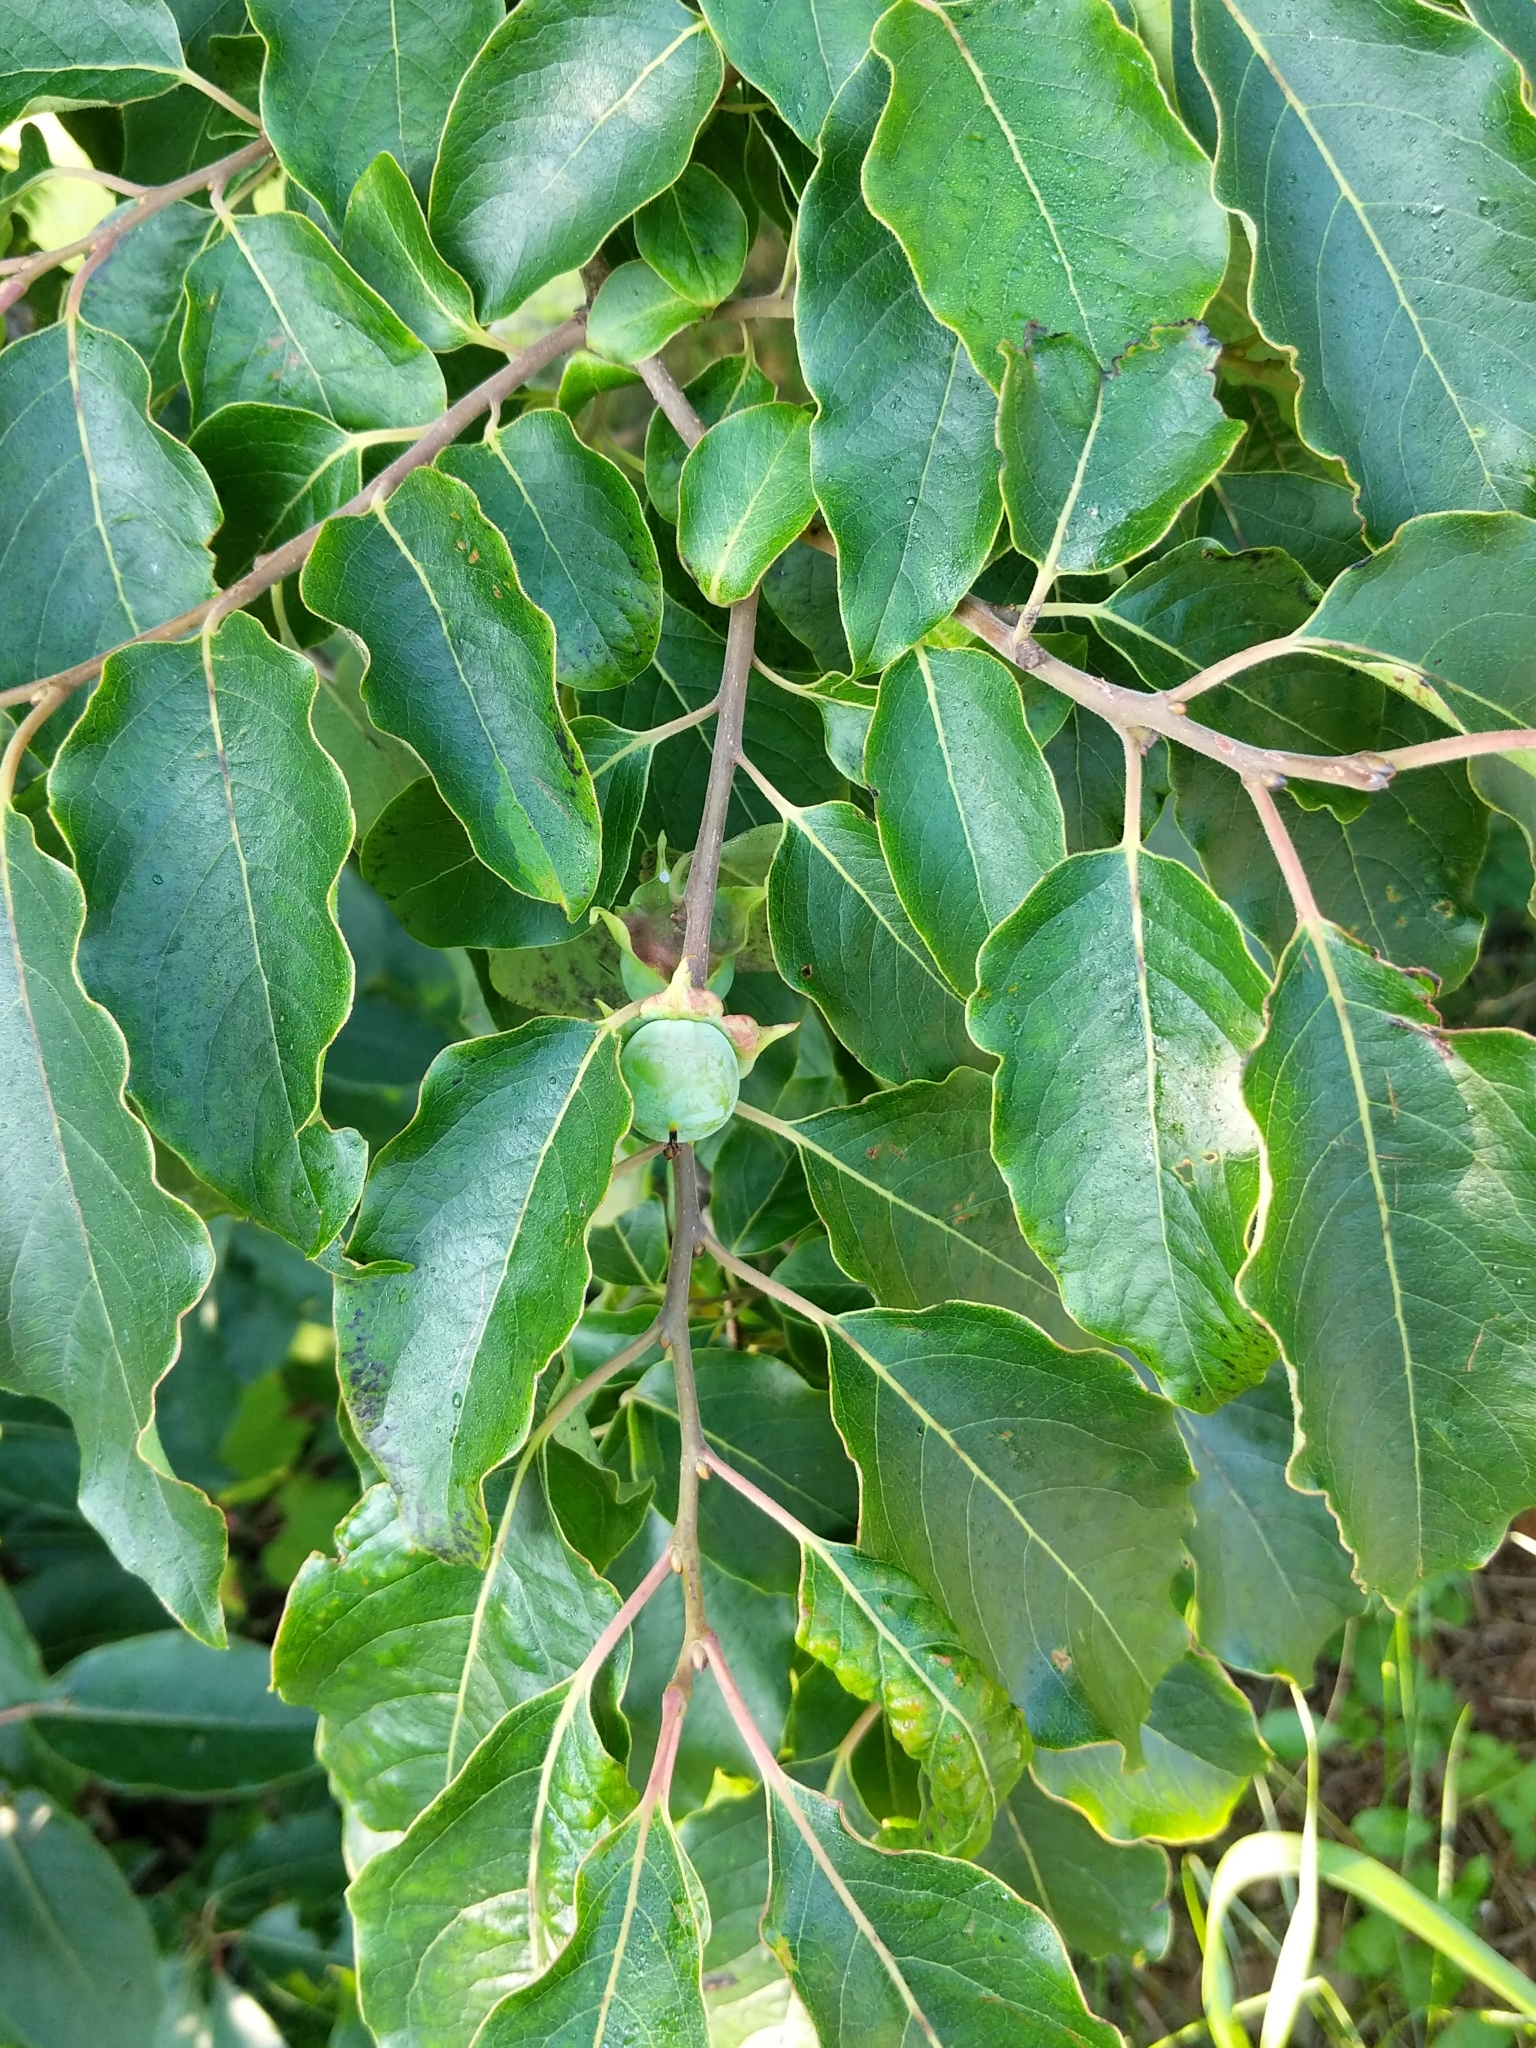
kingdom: Plantae
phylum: Tracheophyta
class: Magnoliopsida
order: Ericales
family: Ebenaceae
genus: Diospyros
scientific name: Diospyros virginiana
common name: Persimmon
